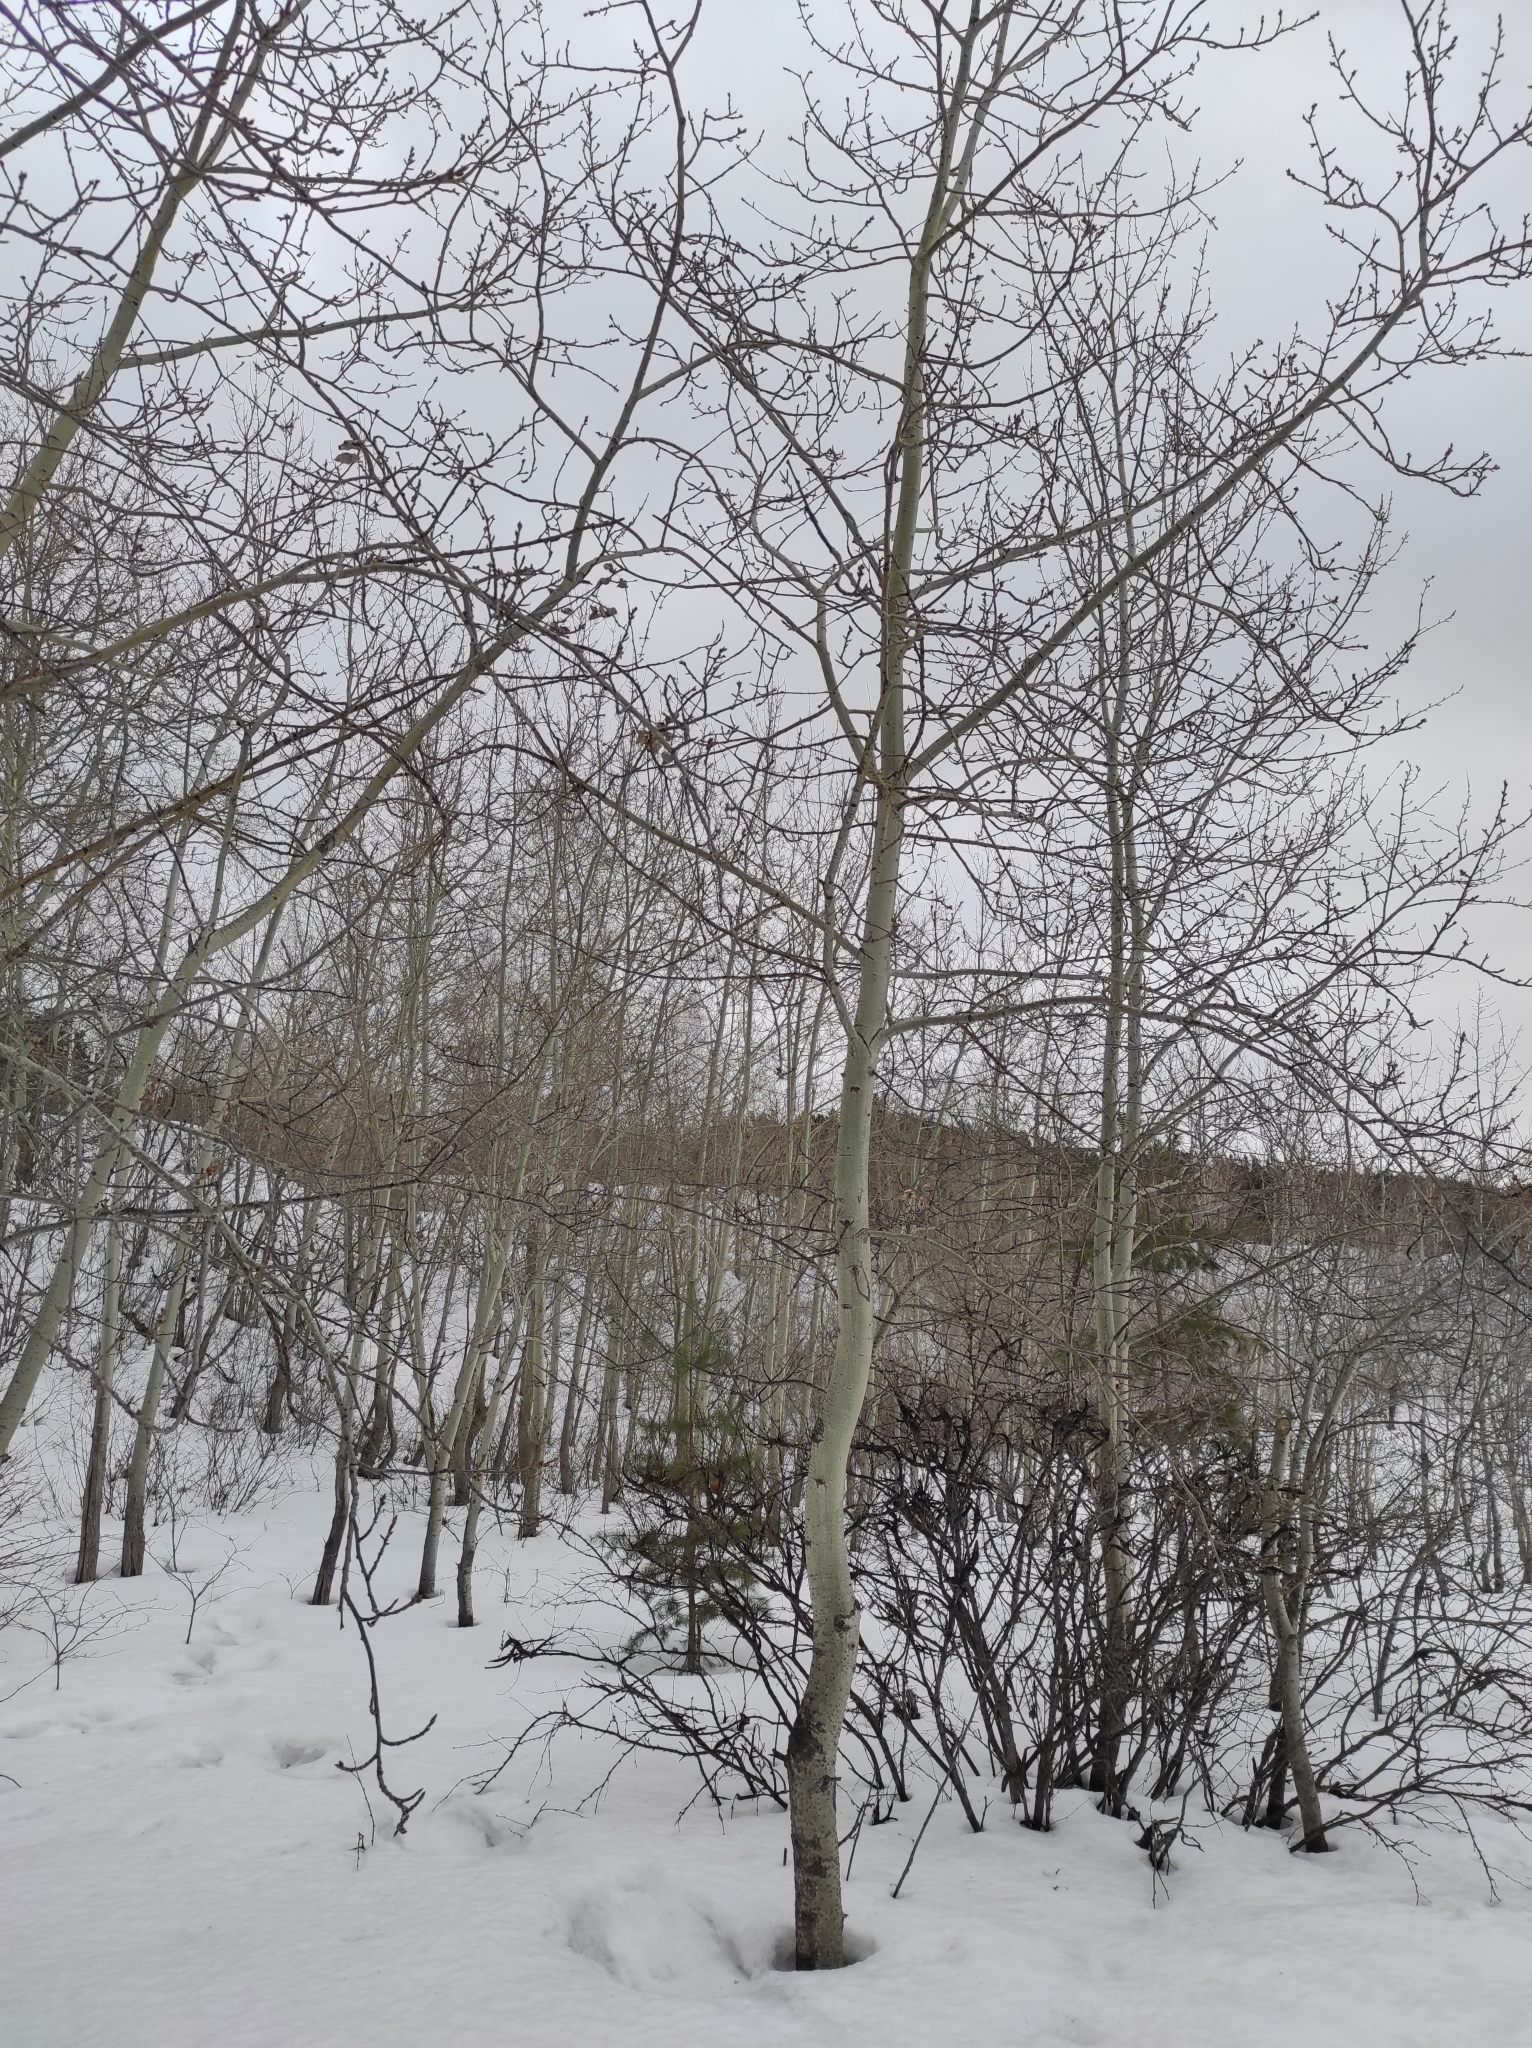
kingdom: Plantae
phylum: Tracheophyta
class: Magnoliopsida
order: Malpighiales
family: Salicaceae
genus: Populus
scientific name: Populus tremula
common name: European aspen
